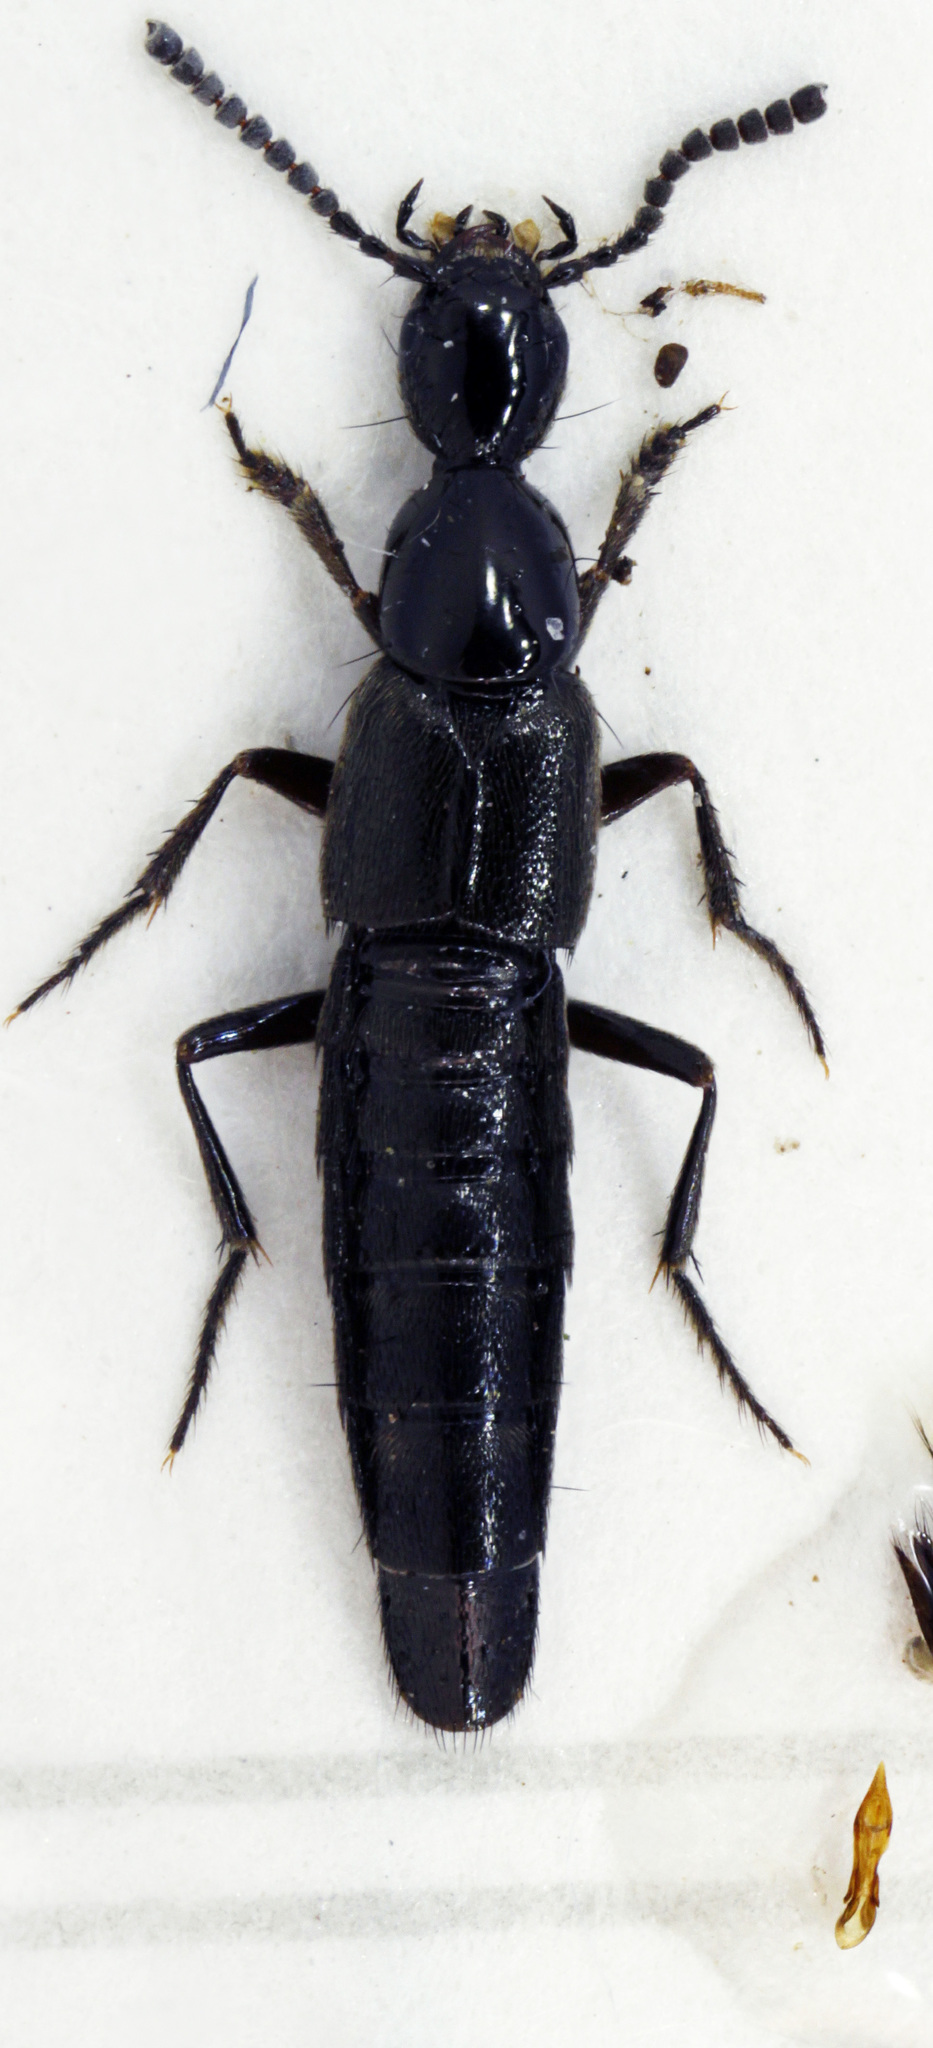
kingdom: Animalia
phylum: Arthropoda
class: Insecta
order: Coleoptera
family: Staphylinidae
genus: Rabigus
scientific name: Rabigus pullus
